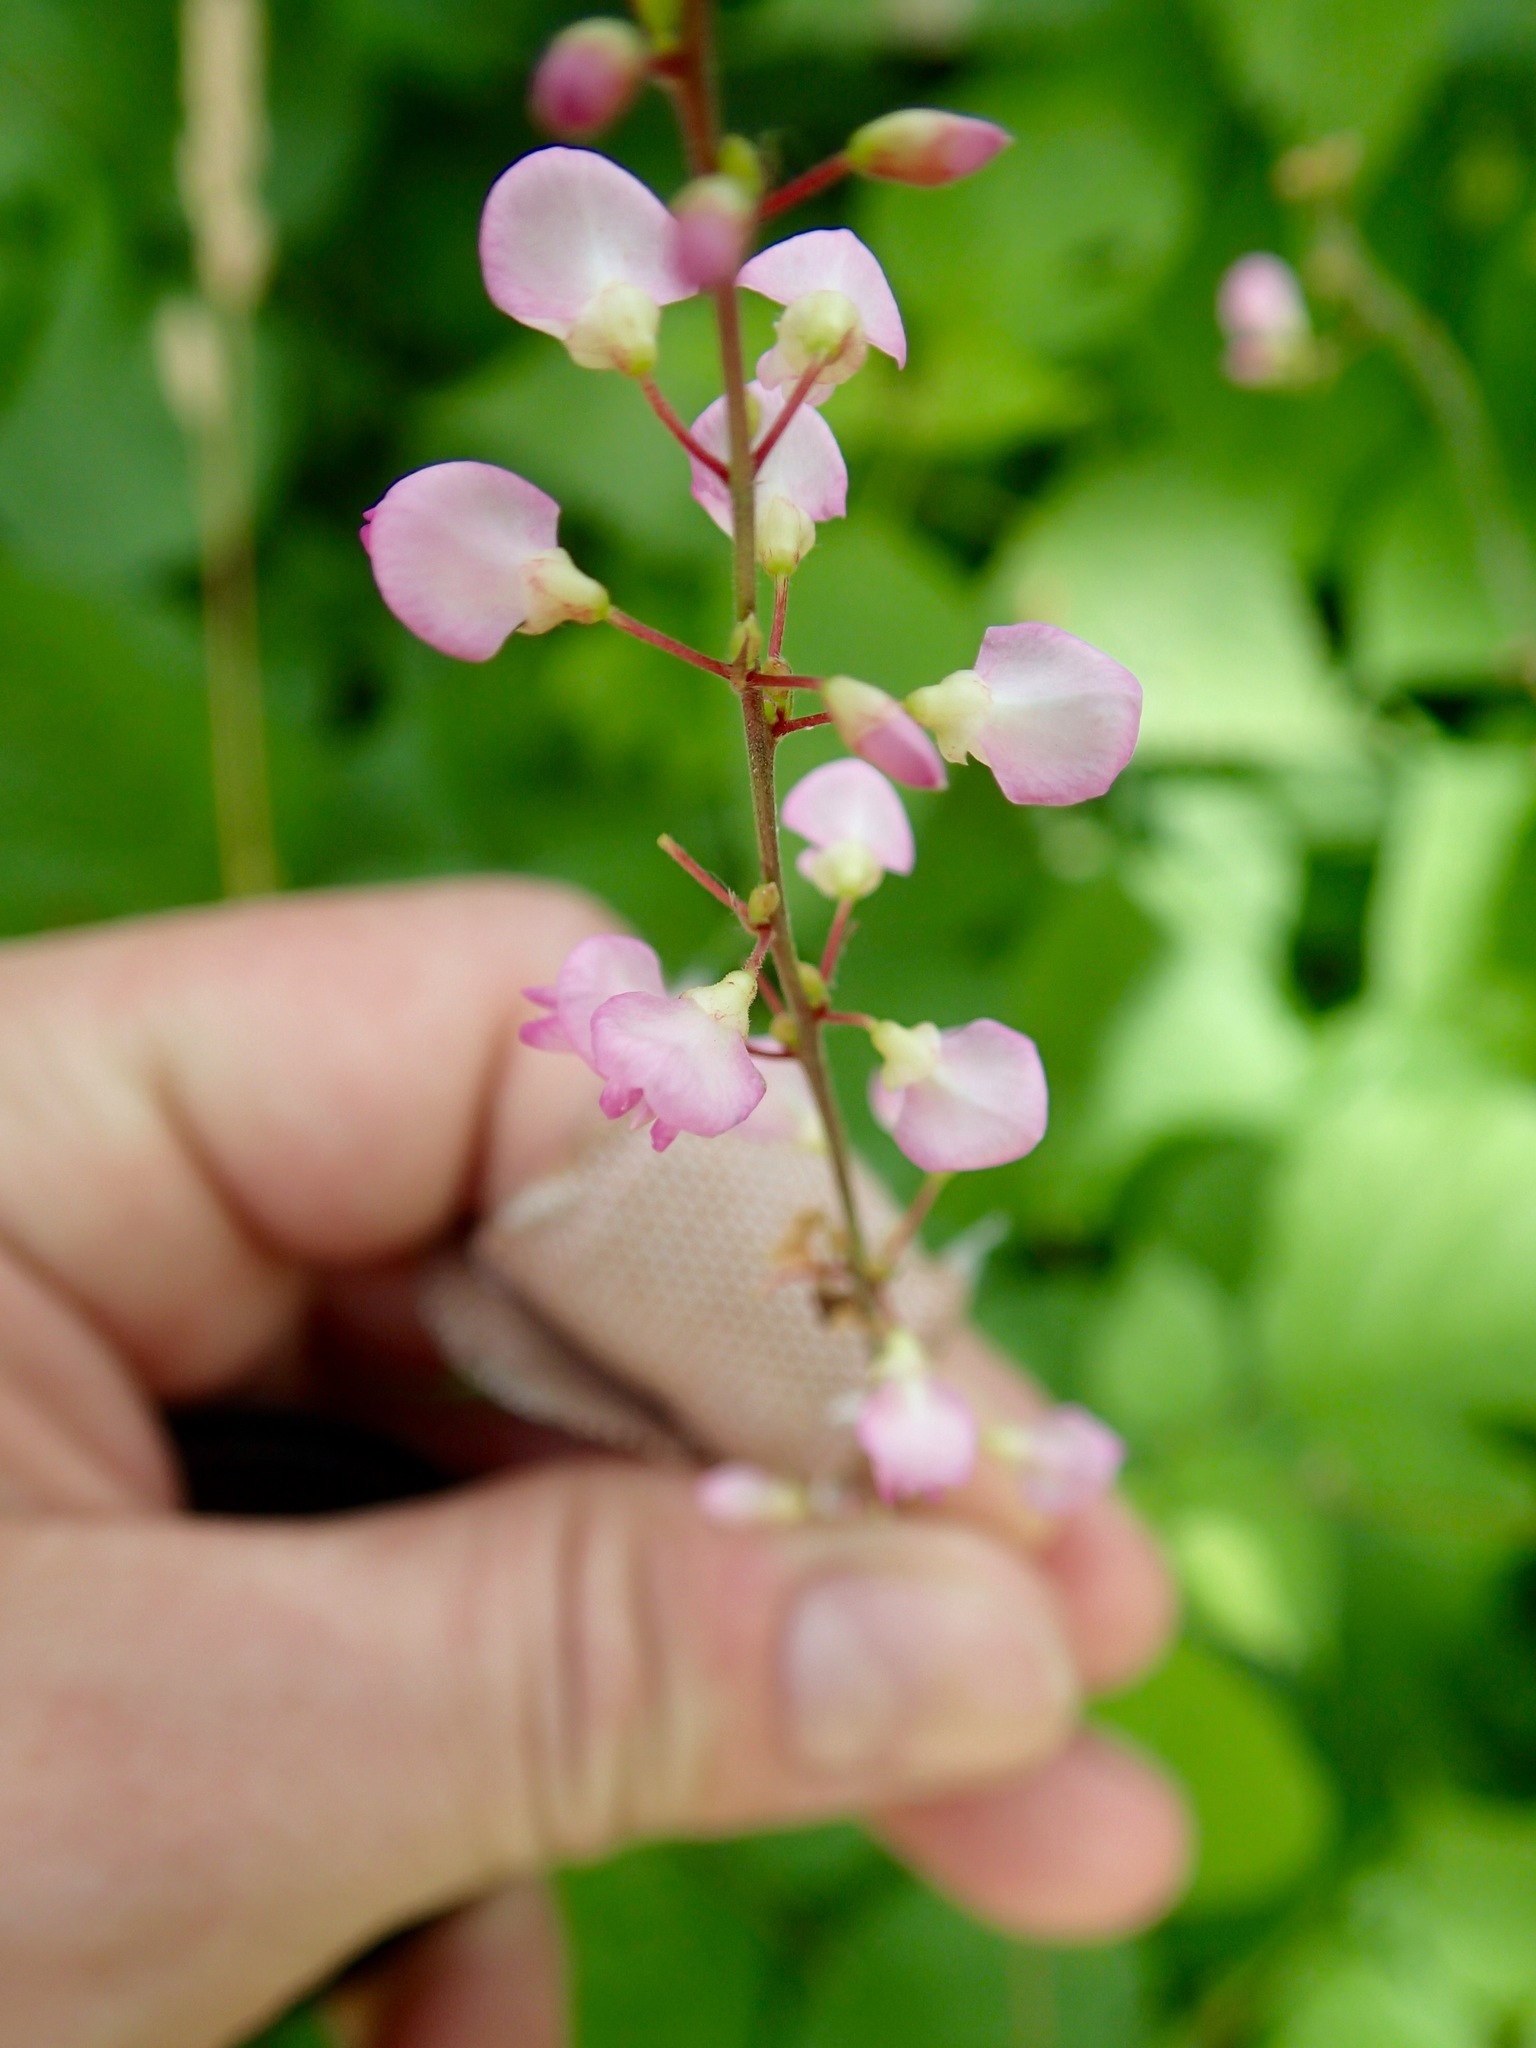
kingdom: Plantae
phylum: Tracheophyta
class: Magnoliopsida
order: Fabales
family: Fabaceae
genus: Hylodesmum
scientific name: Hylodesmum glutinosum
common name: Clustered-leaved tick-trefoil
